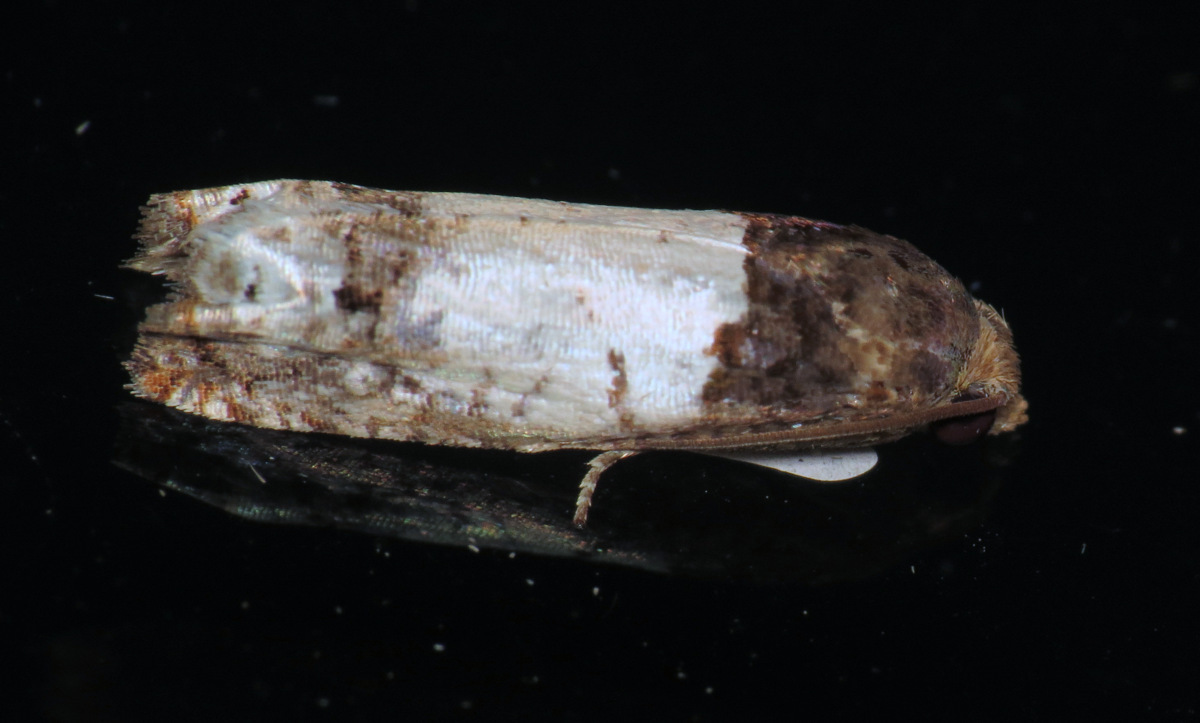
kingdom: Animalia
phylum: Arthropoda
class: Insecta
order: Lepidoptera
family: Tortricidae
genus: Epiblema
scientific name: Epiblema scudderiana
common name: Goldenrod gall moth
